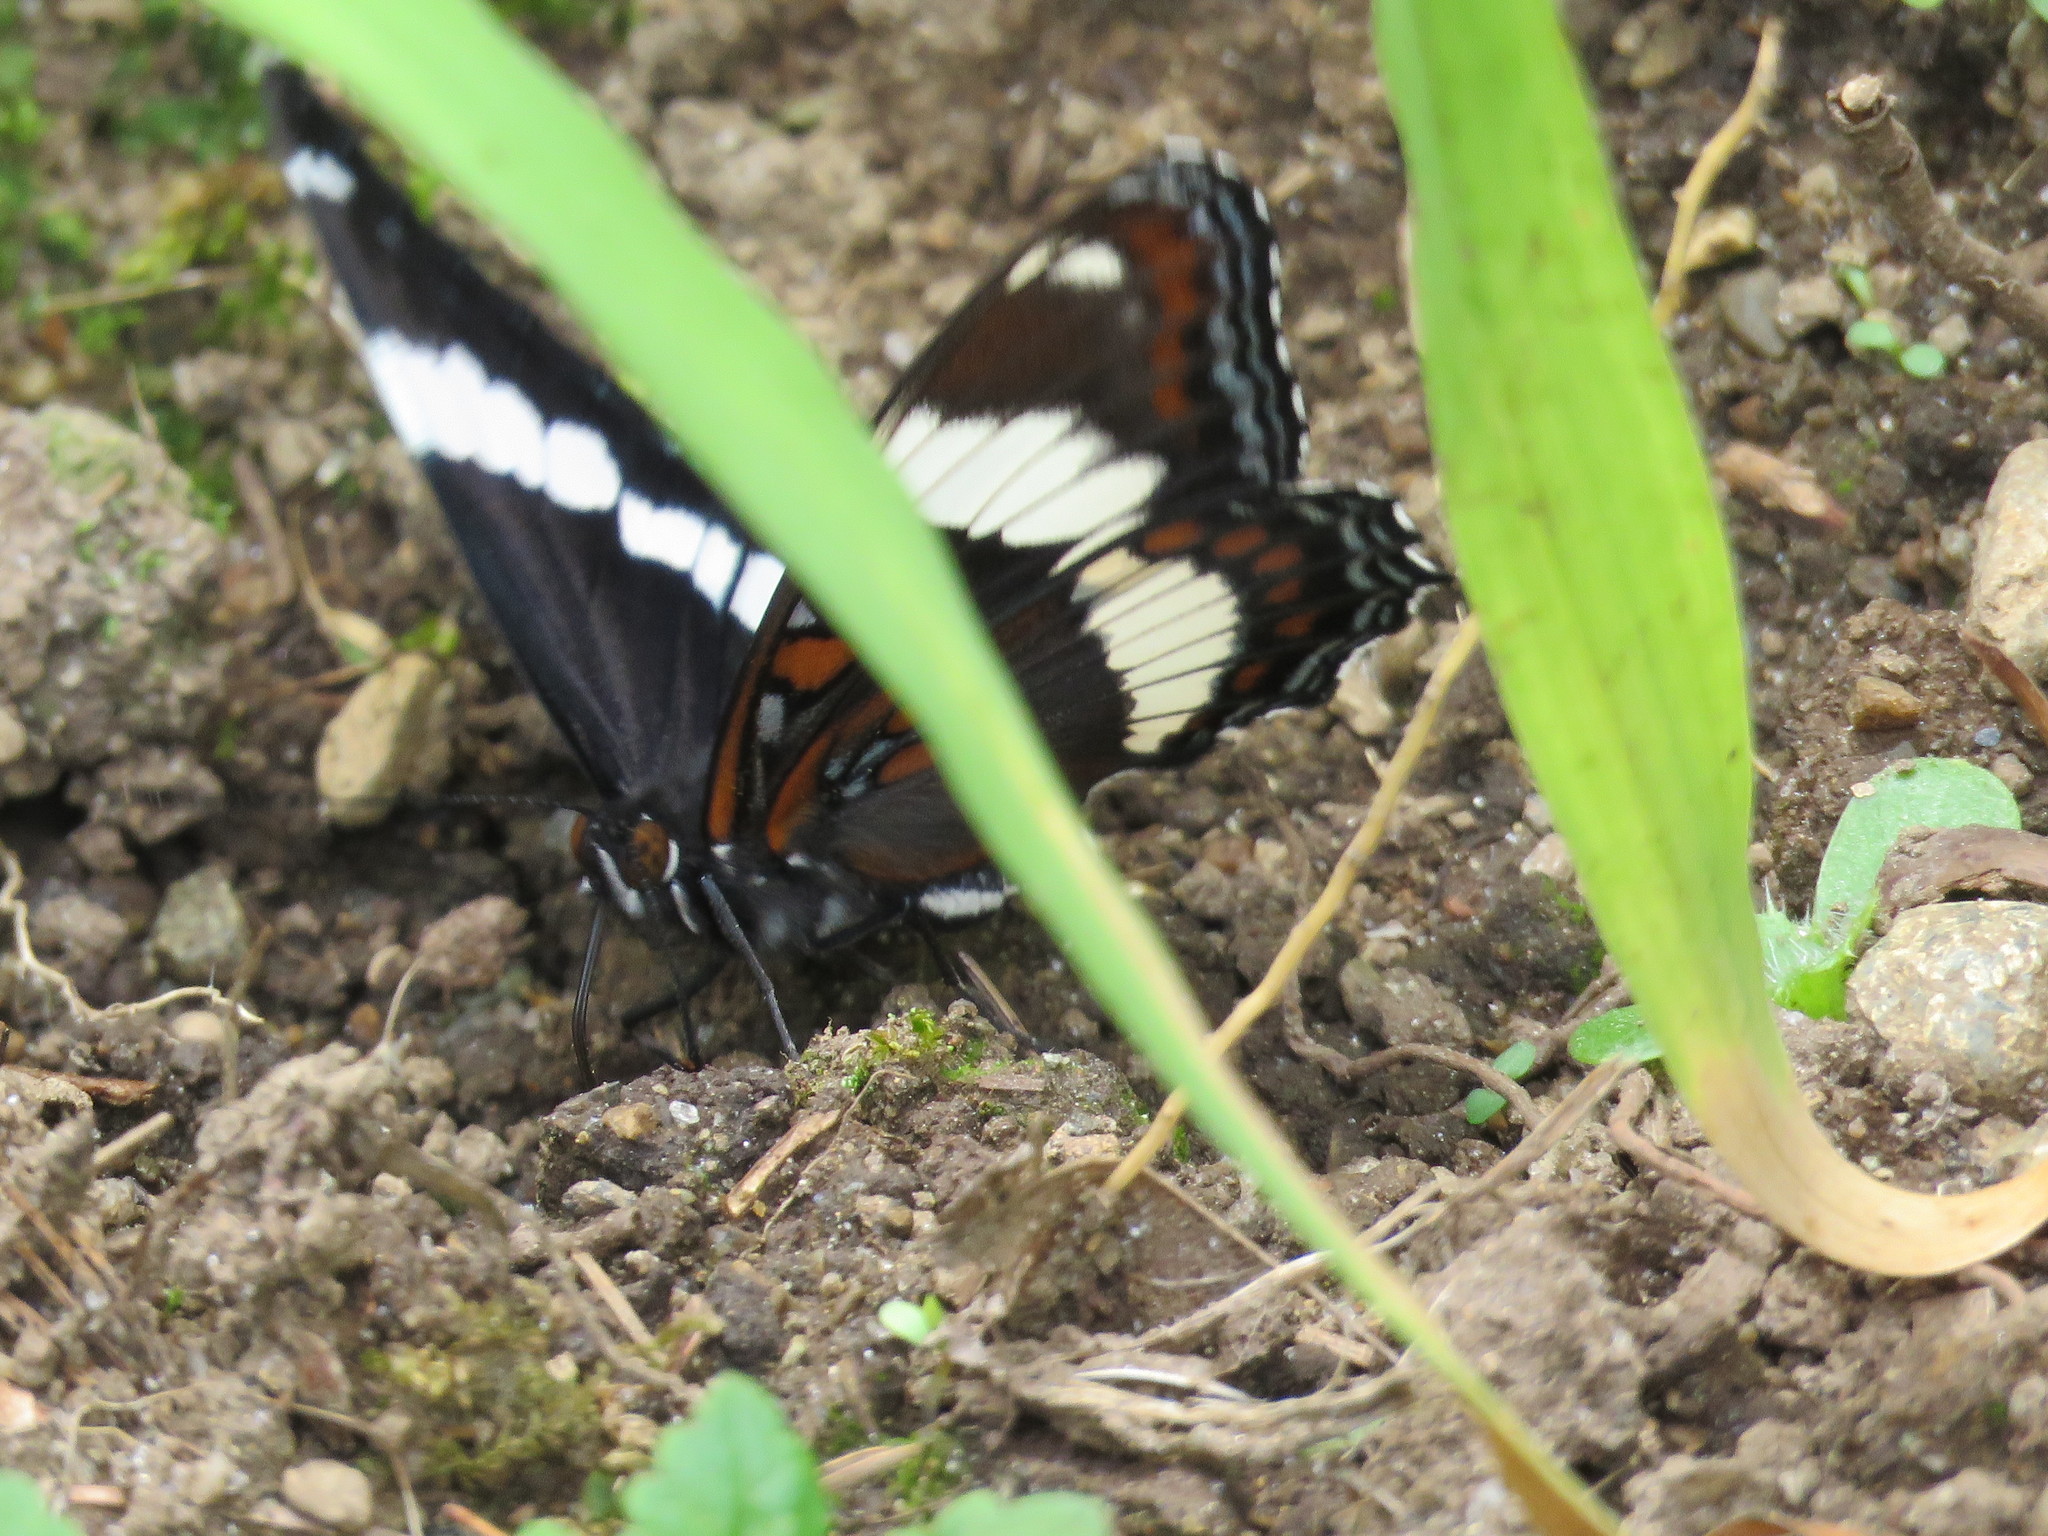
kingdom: Animalia
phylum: Arthropoda
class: Insecta
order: Lepidoptera
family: Nymphalidae
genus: Limenitis
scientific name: Limenitis arthemis
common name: Red-spotted admiral
